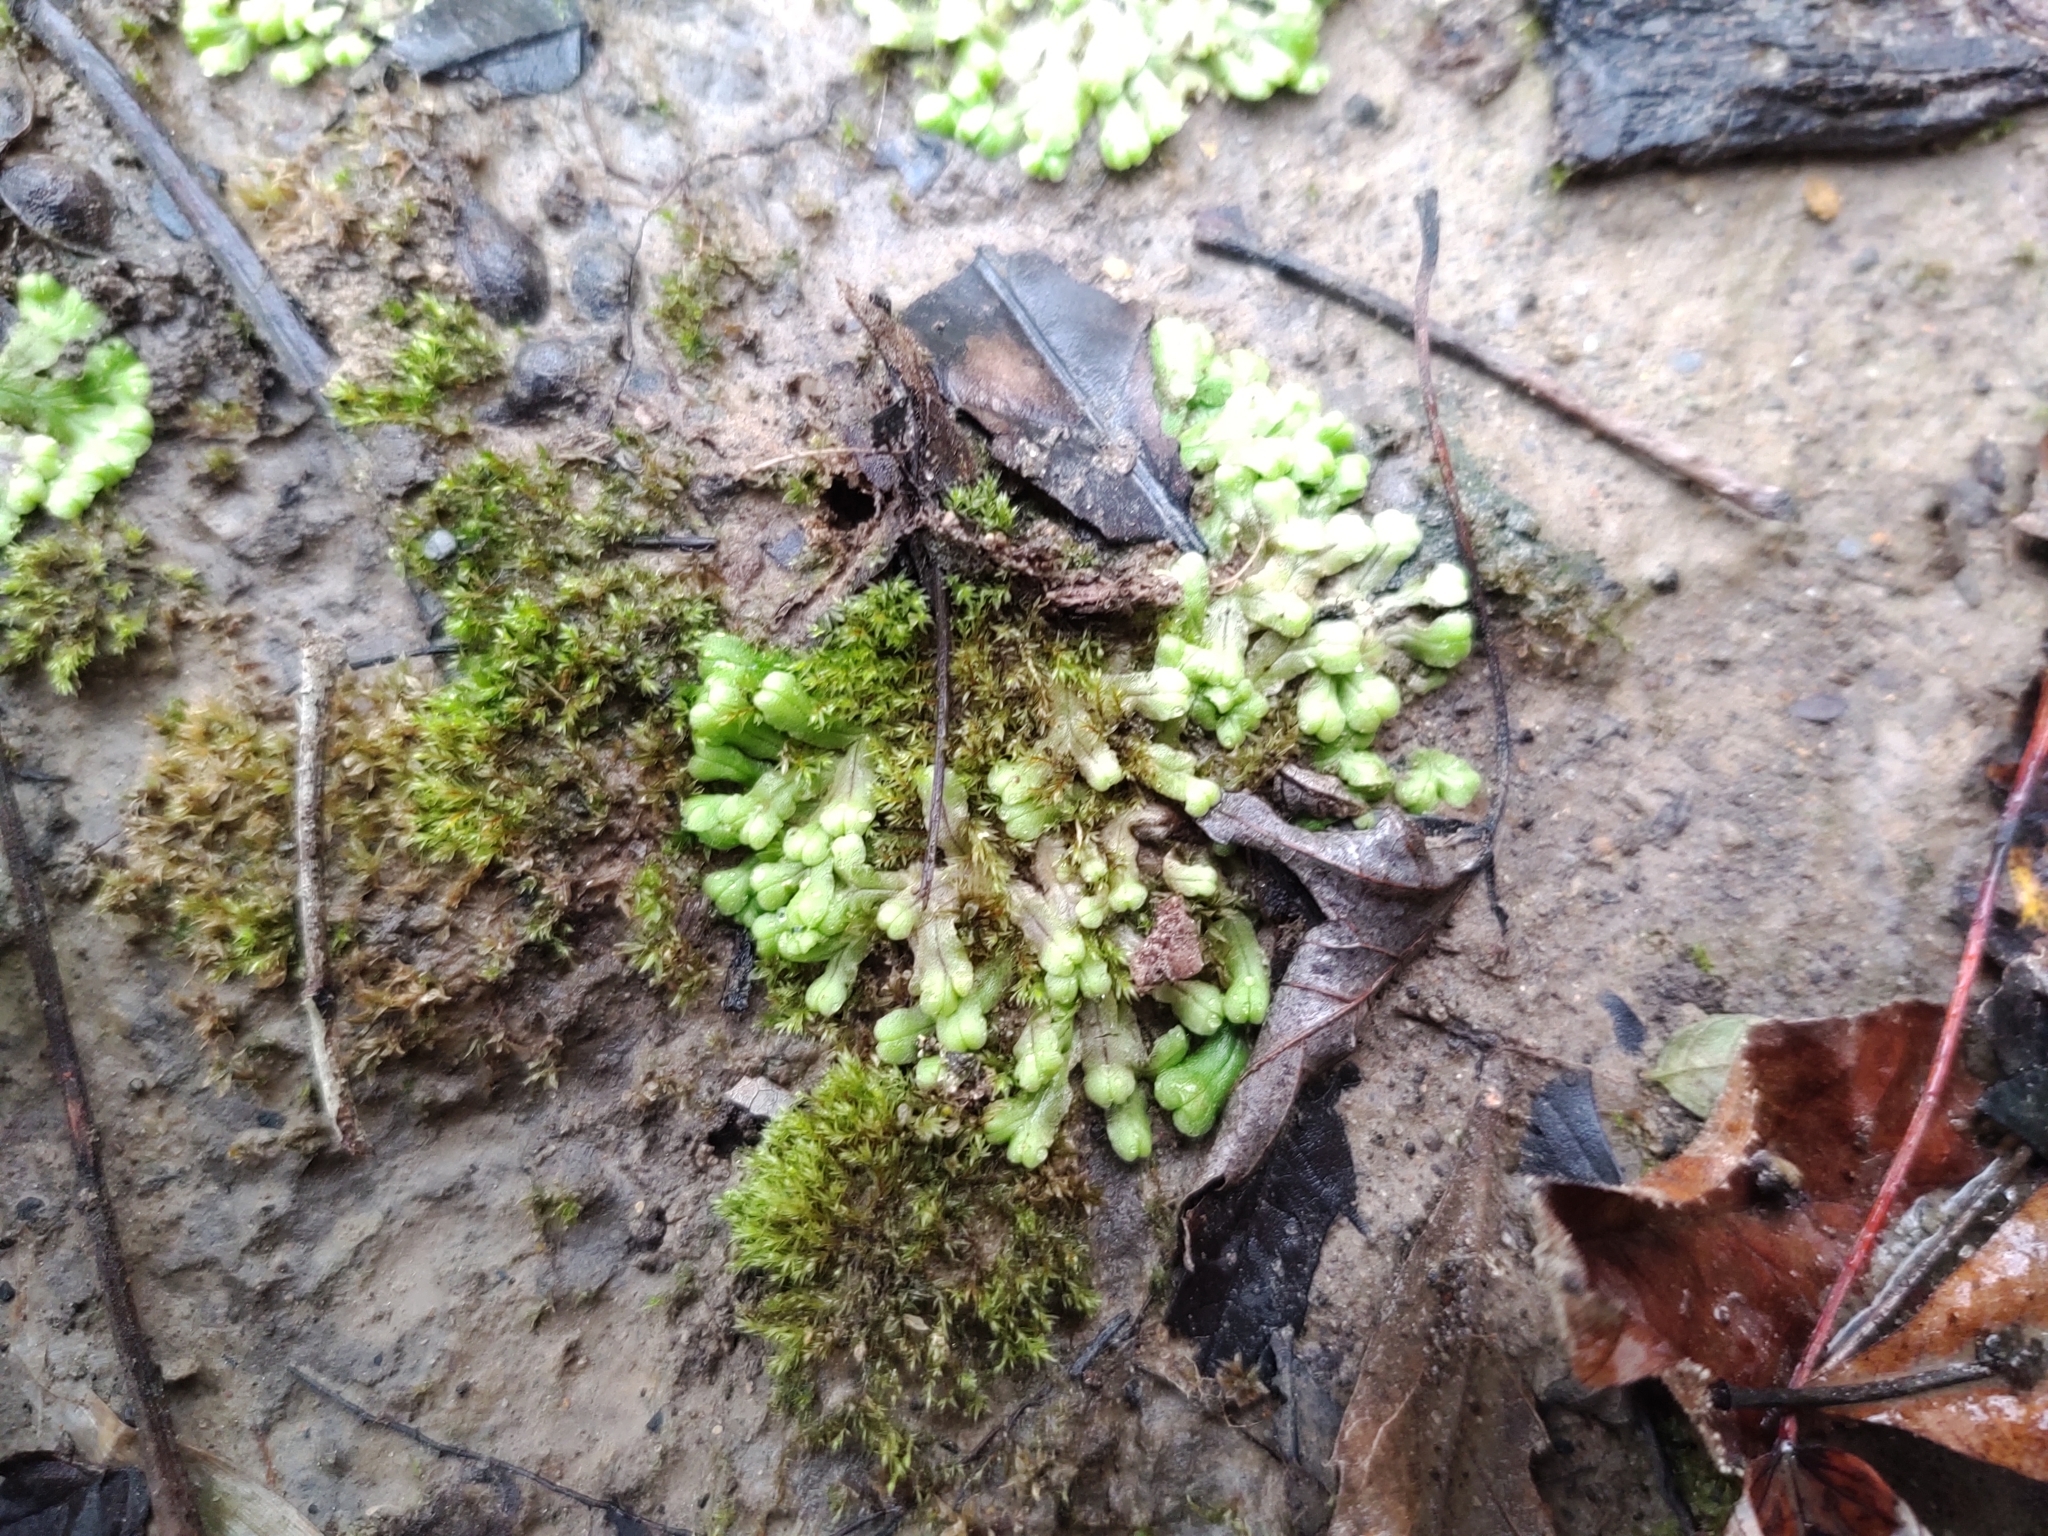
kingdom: Plantae
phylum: Marchantiophyta
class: Marchantiopsida
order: Marchantiales
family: Ricciaceae
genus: Ricciocarpos
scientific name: Ricciocarpos natans
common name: Purple-fringed liverwort
